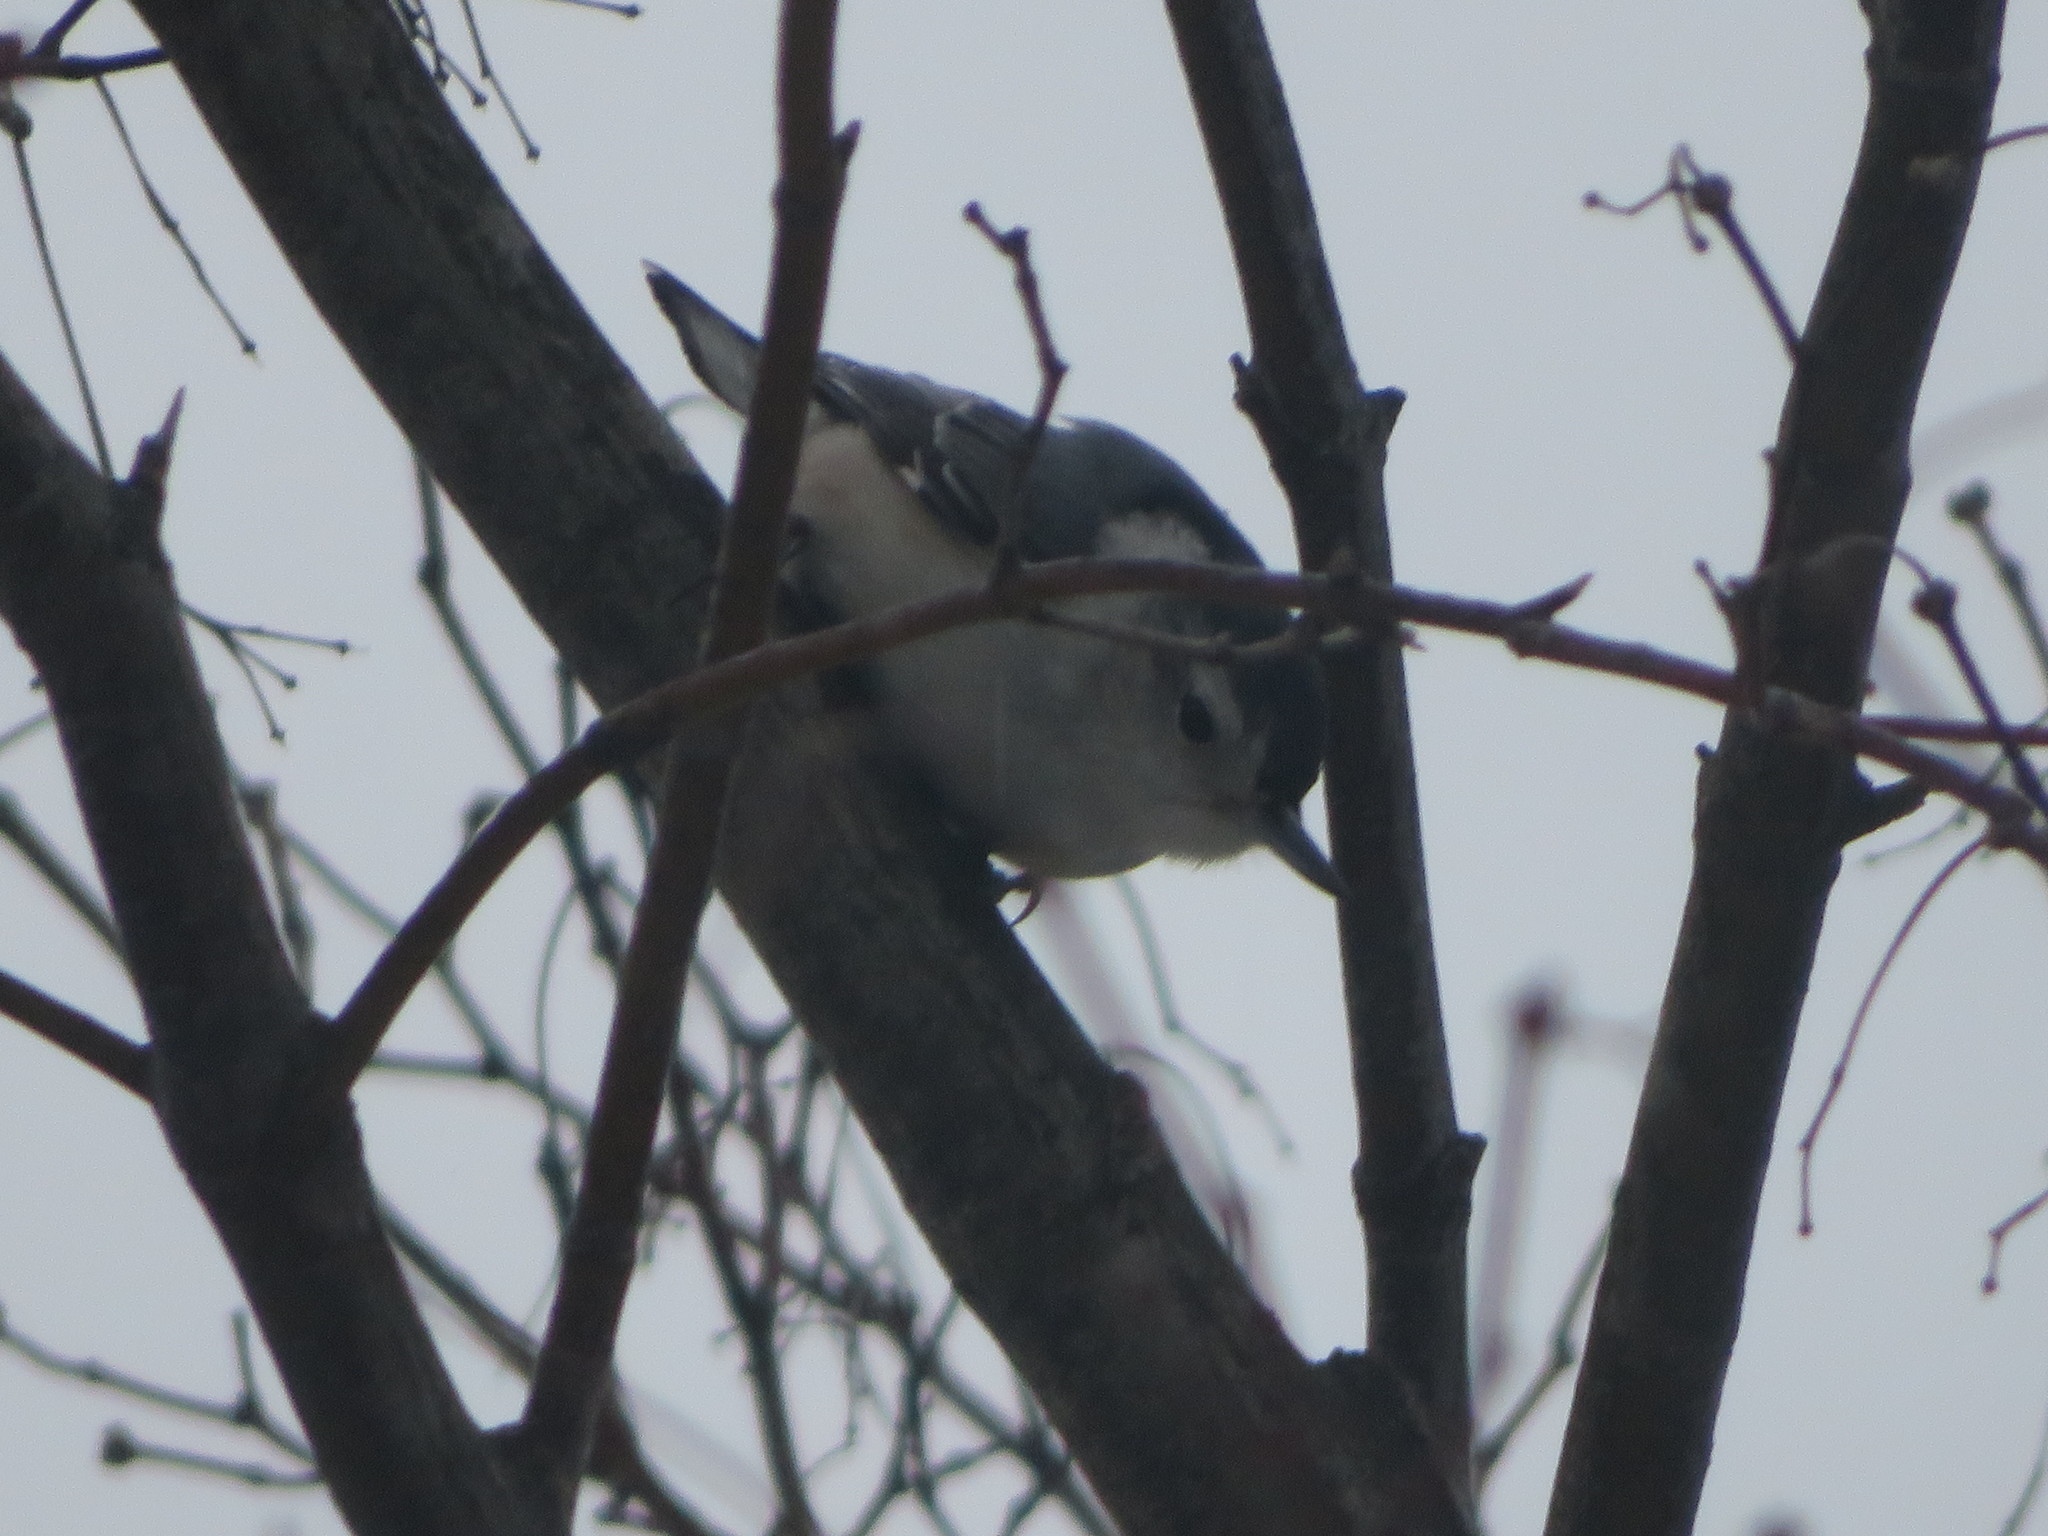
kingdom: Animalia
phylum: Chordata
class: Aves
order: Passeriformes
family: Sittidae
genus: Sitta
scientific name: Sitta carolinensis
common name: White-breasted nuthatch
